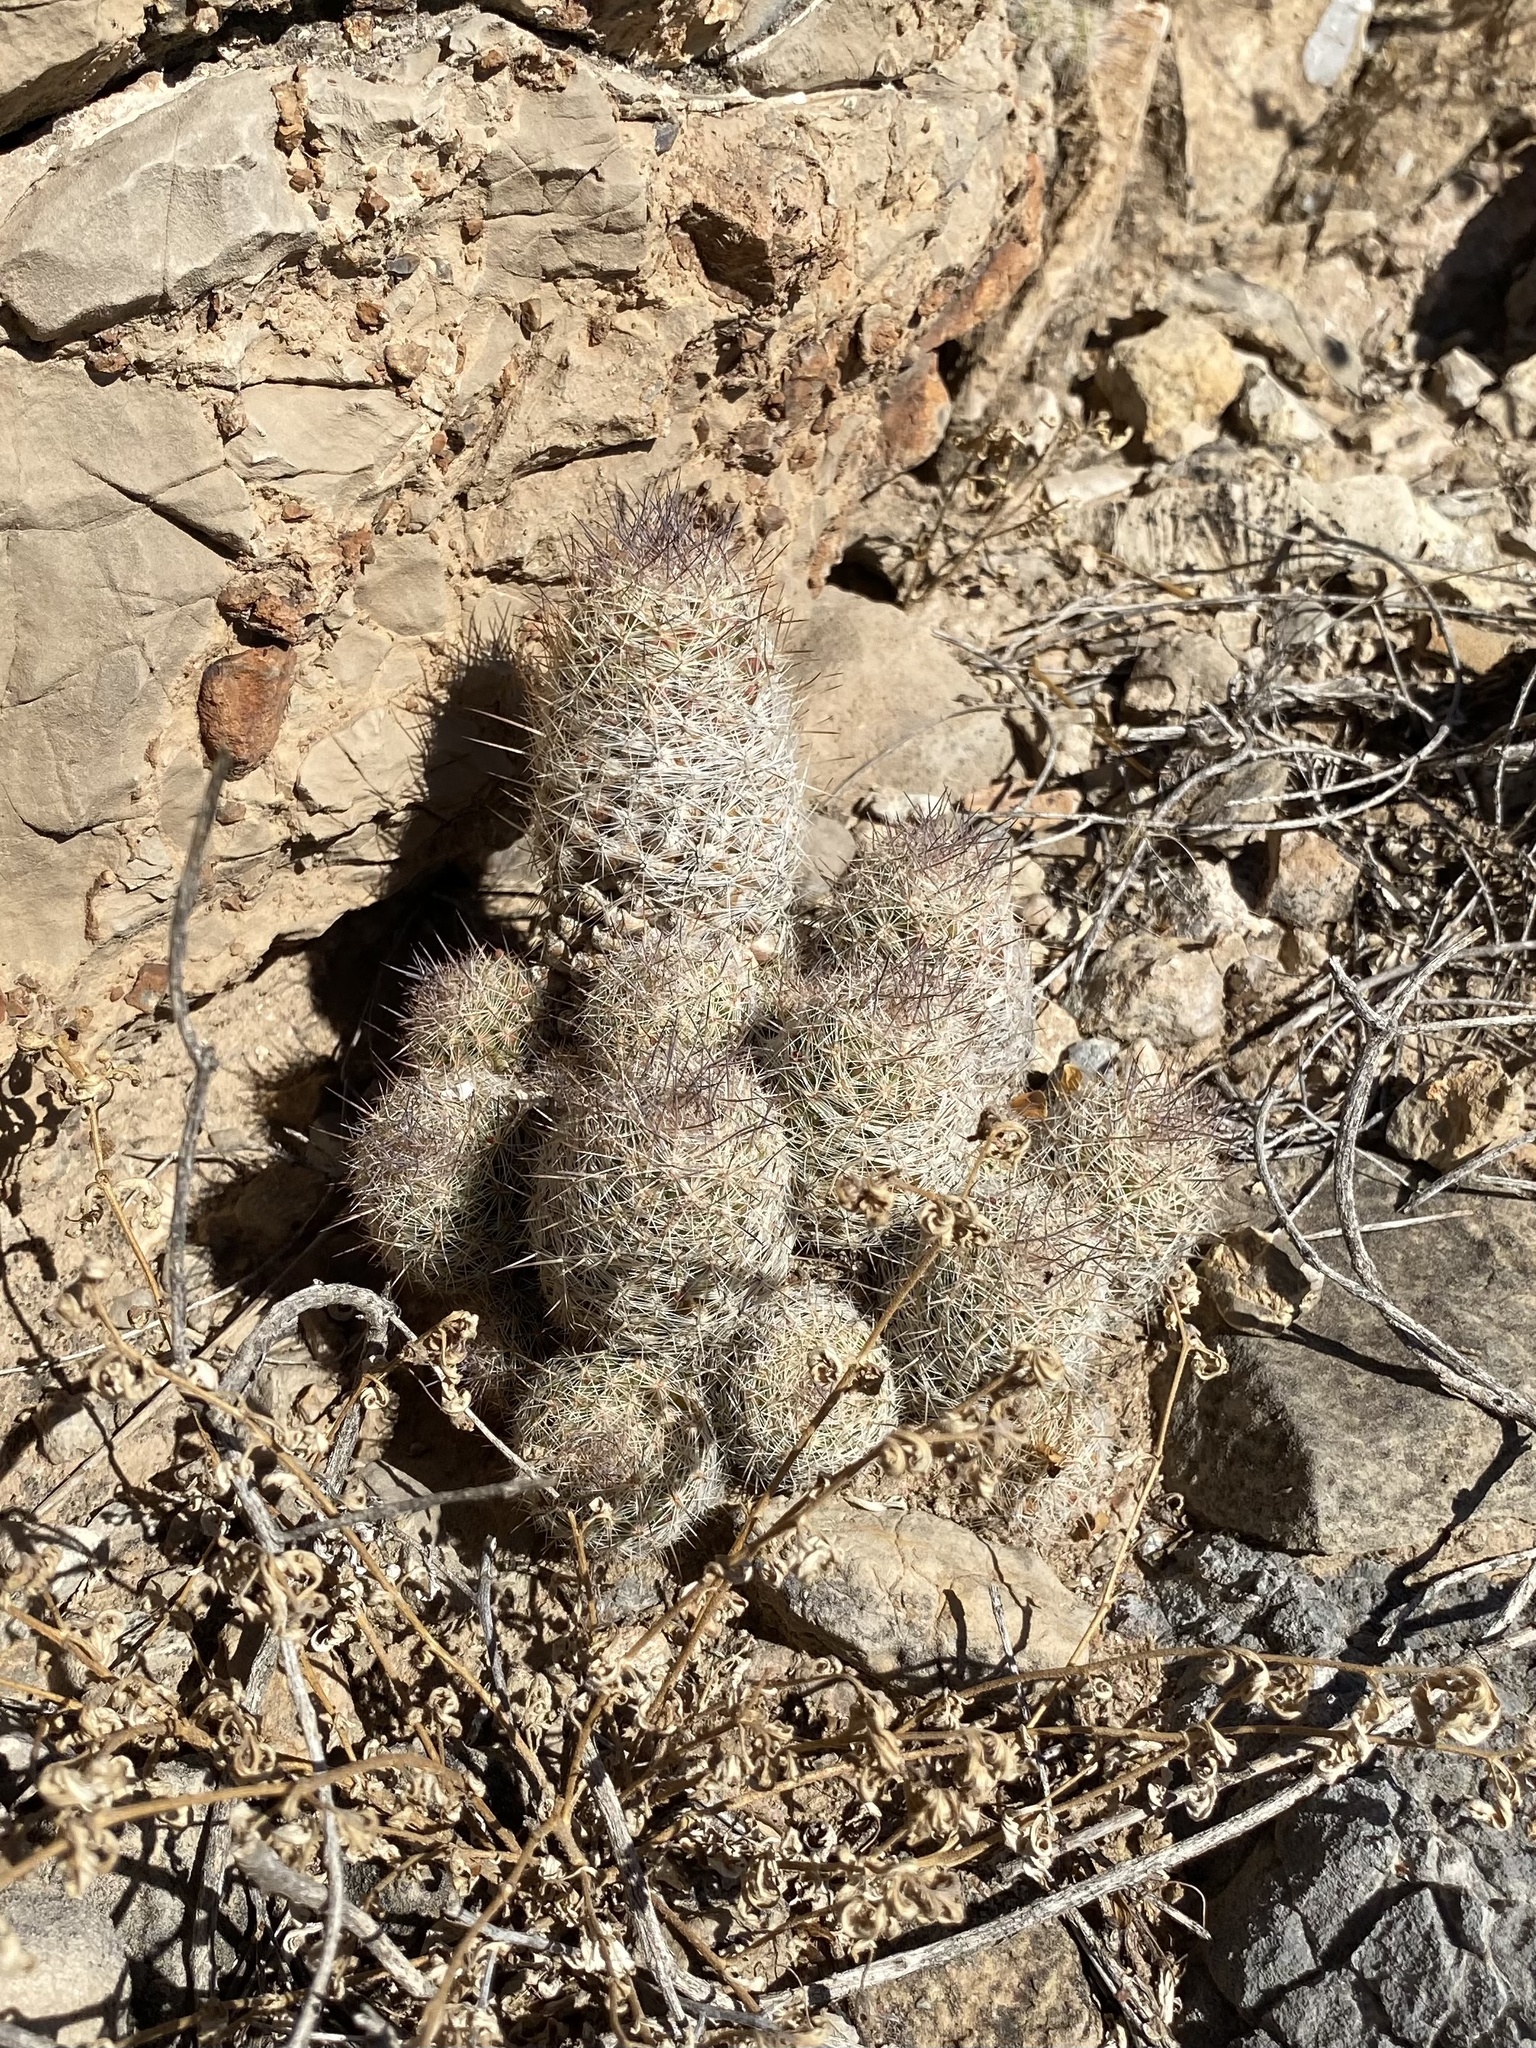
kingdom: Plantae
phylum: Tracheophyta
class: Magnoliopsida
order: Caryophyllales
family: Cactaceae
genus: Pelecyphora
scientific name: Pelecyphora tuberculosa
